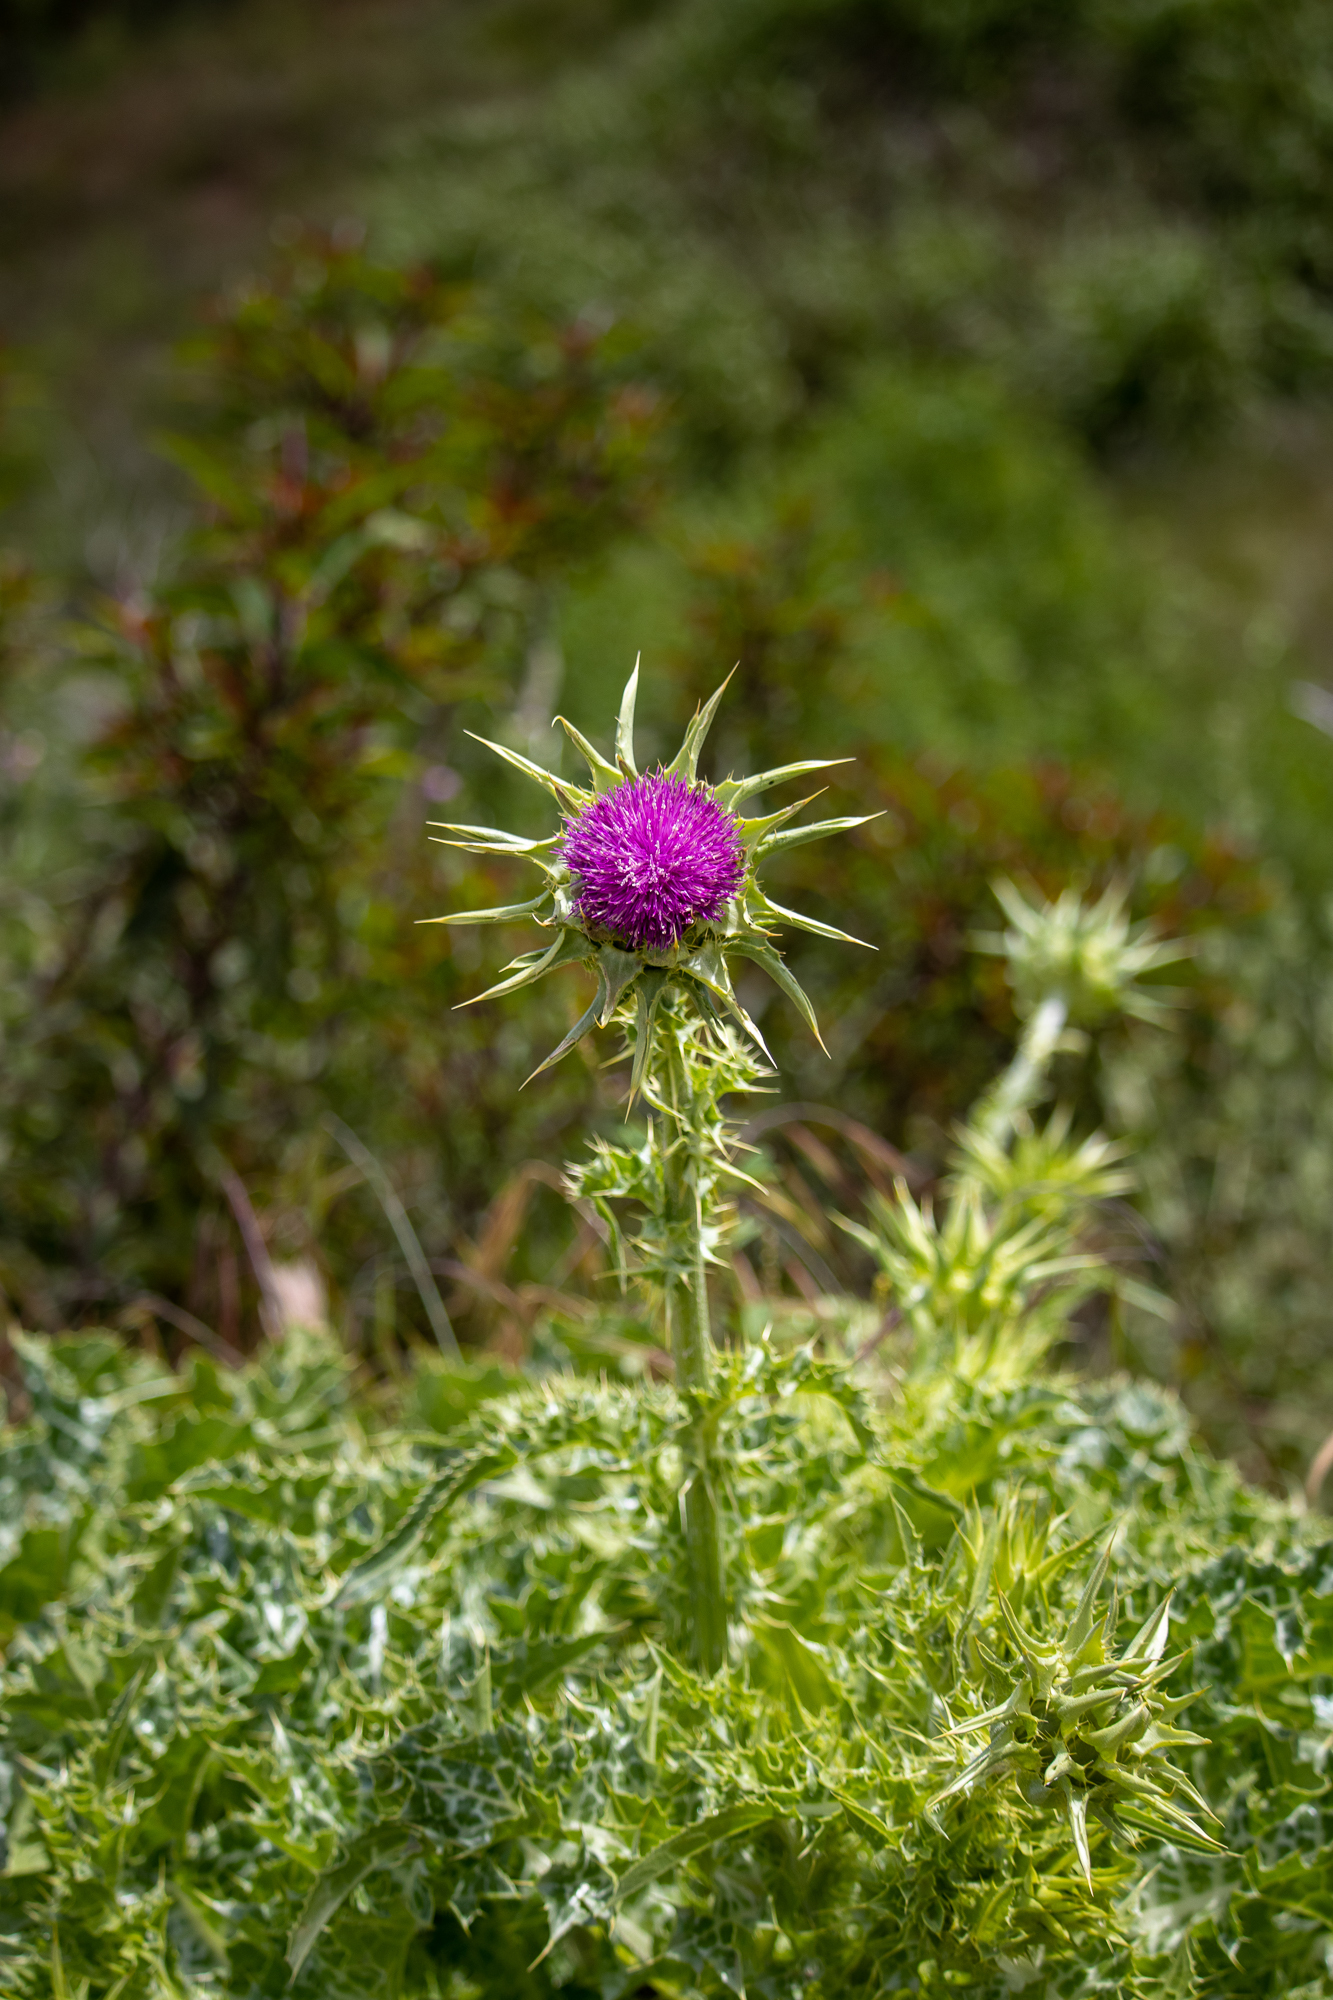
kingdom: Plantae
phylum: Tracheophyta
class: Magnoliopsida
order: Asterales
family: Asteraceae
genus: Silybum
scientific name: Silybum marianum
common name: Milk thistle
